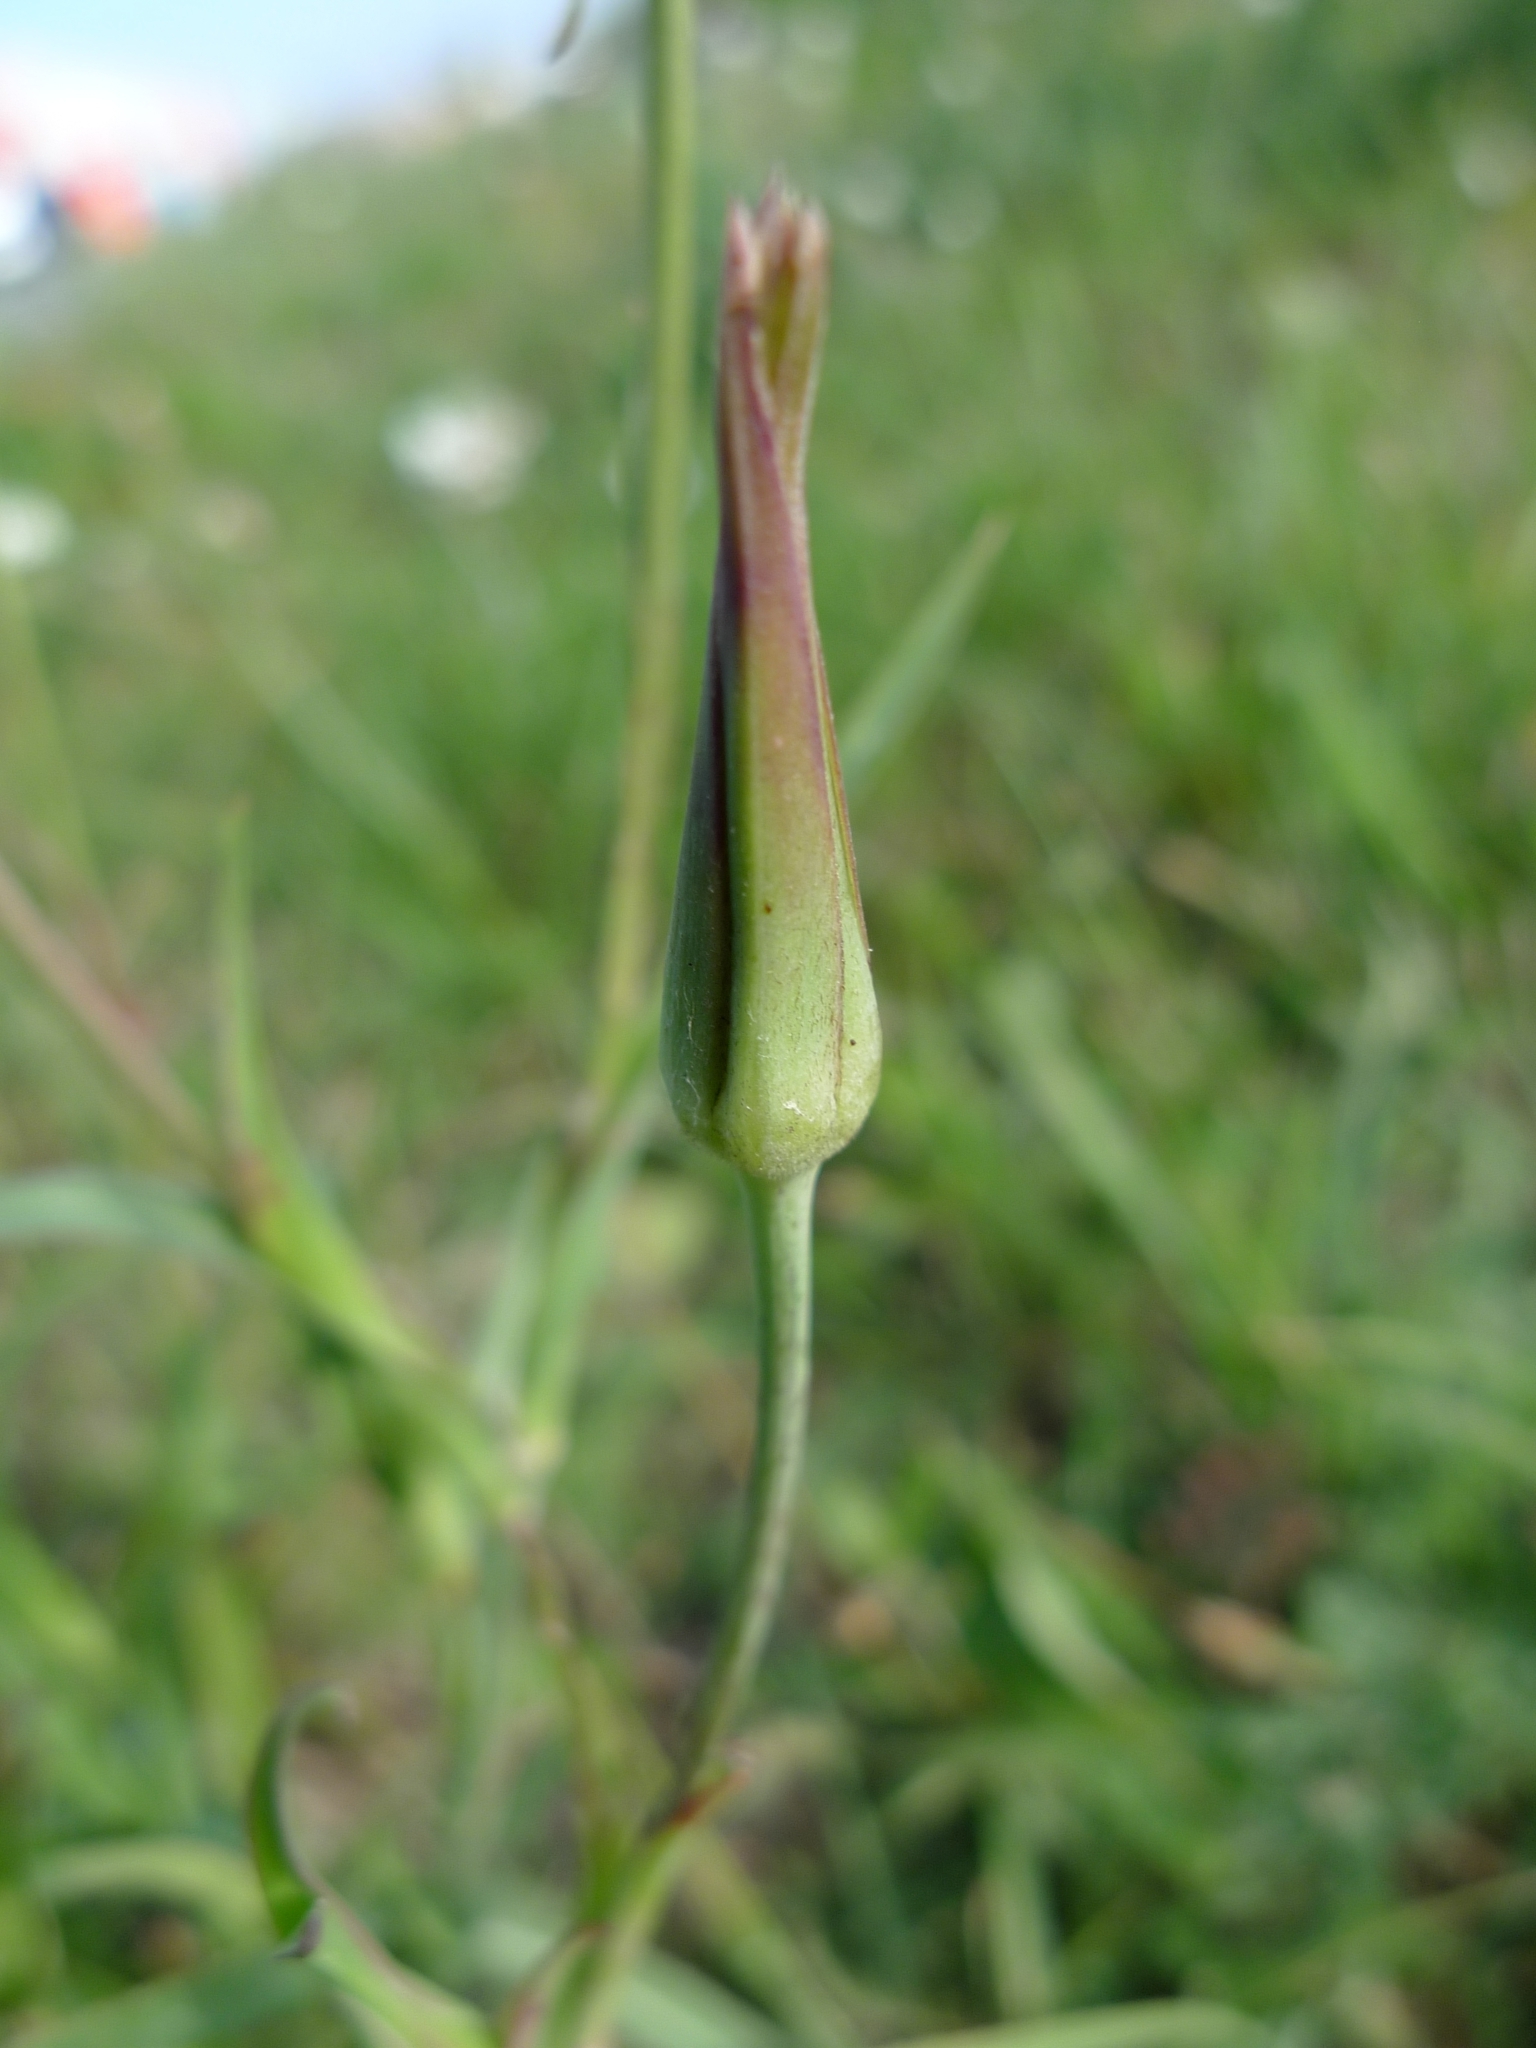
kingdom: Plantae
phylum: Tracheophyta
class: Magnoliopsida
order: Asterales
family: Asteraceae
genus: Tragopogon
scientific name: Tragopogon orientalis
